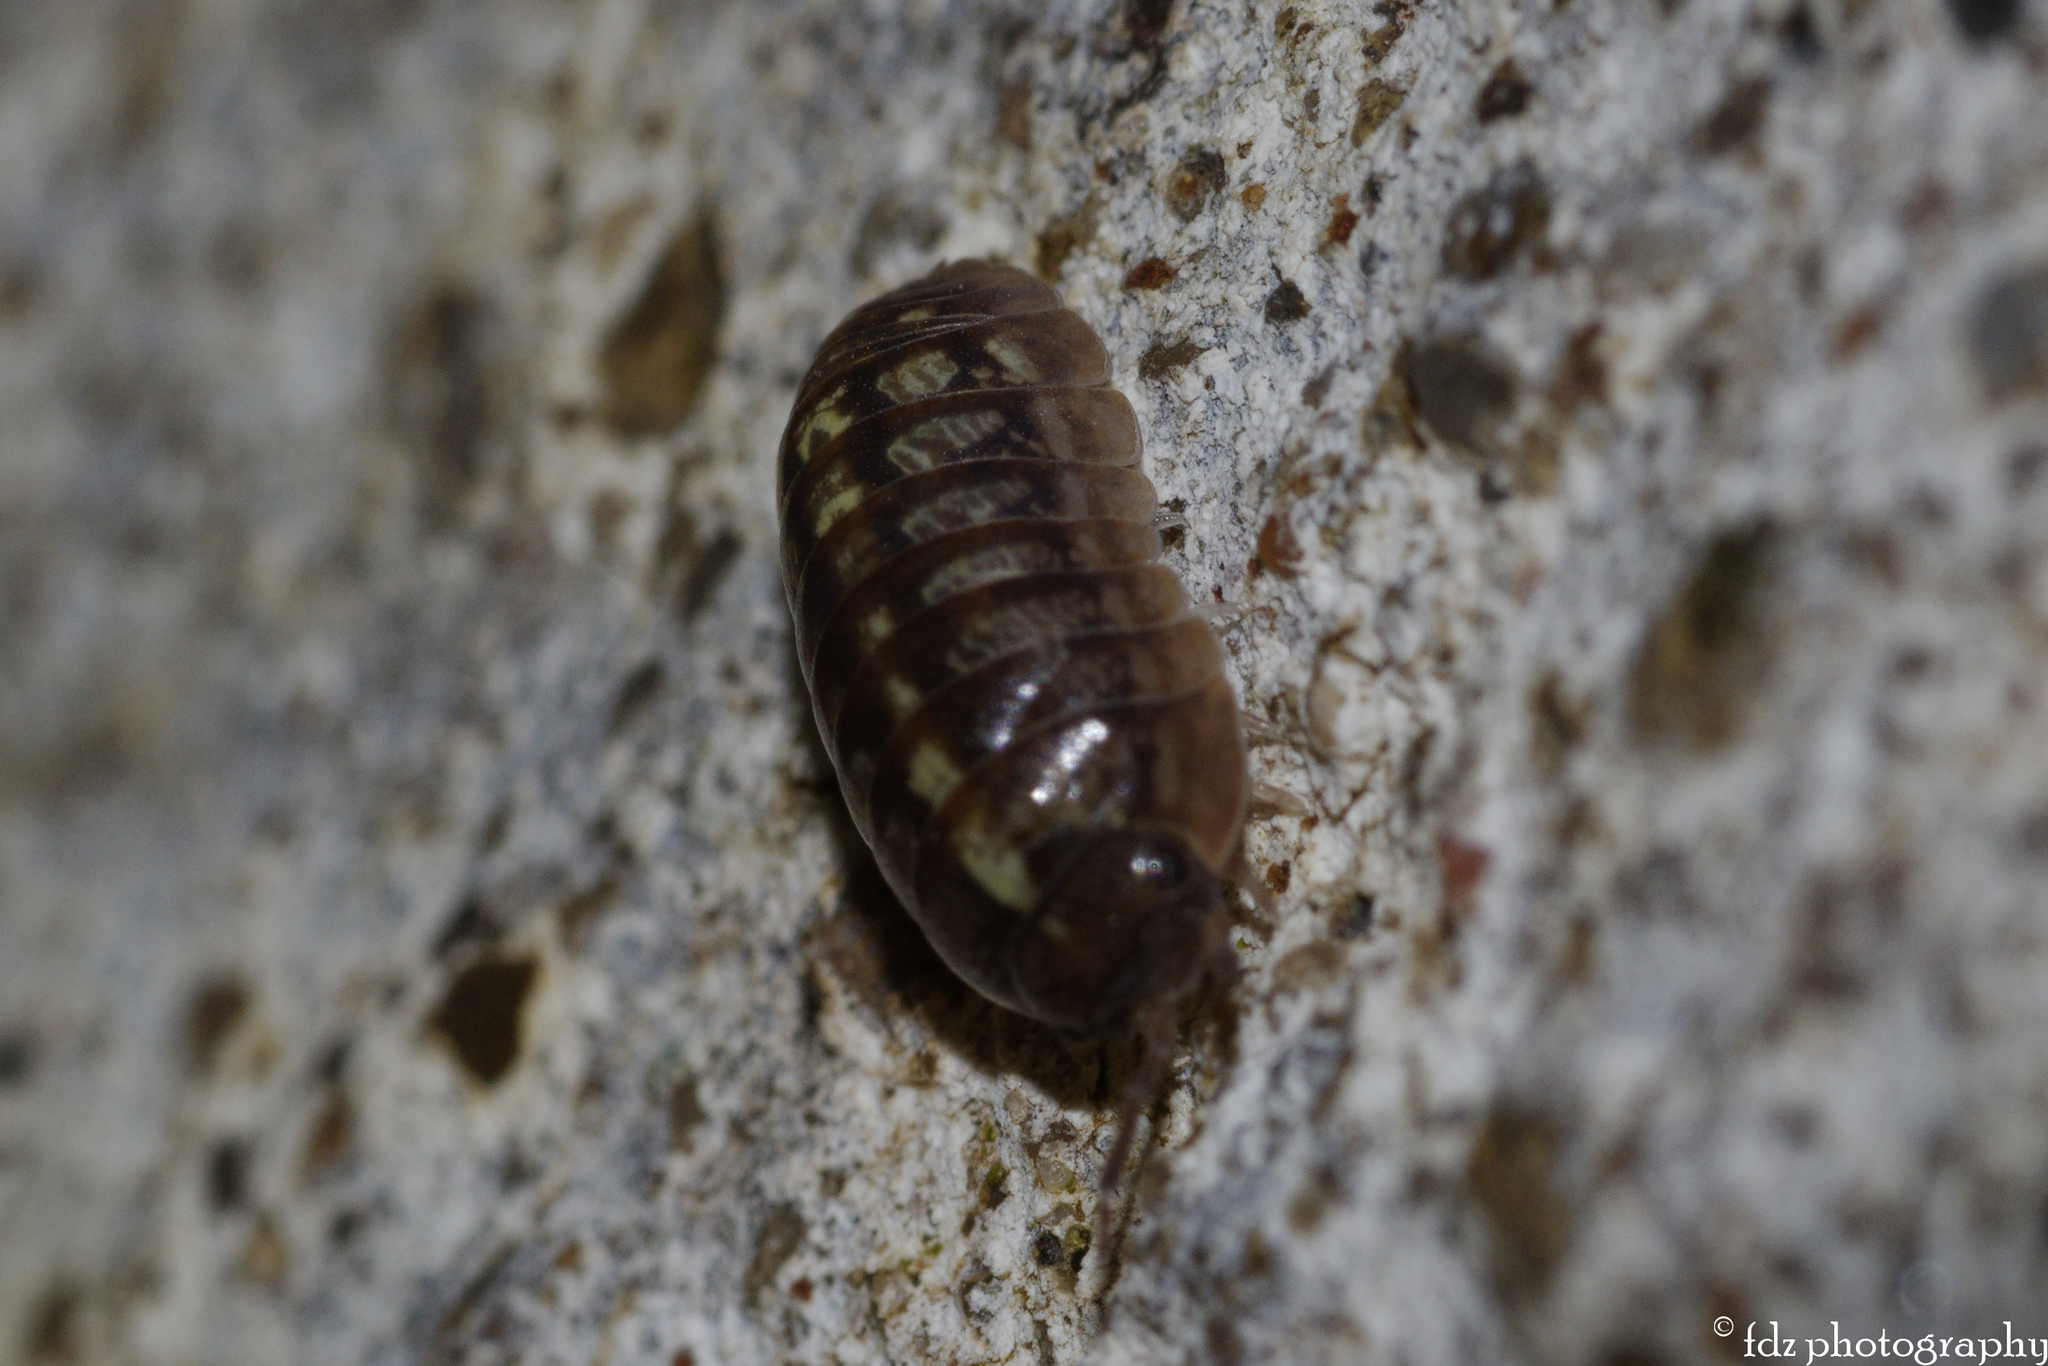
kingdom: Animalia
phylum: Arthropoda
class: Malacostraca
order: Isopoda
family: Armadillidiidae
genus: Armadillidium
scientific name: Armadillidium vulgare
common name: Common pill woodlouse
